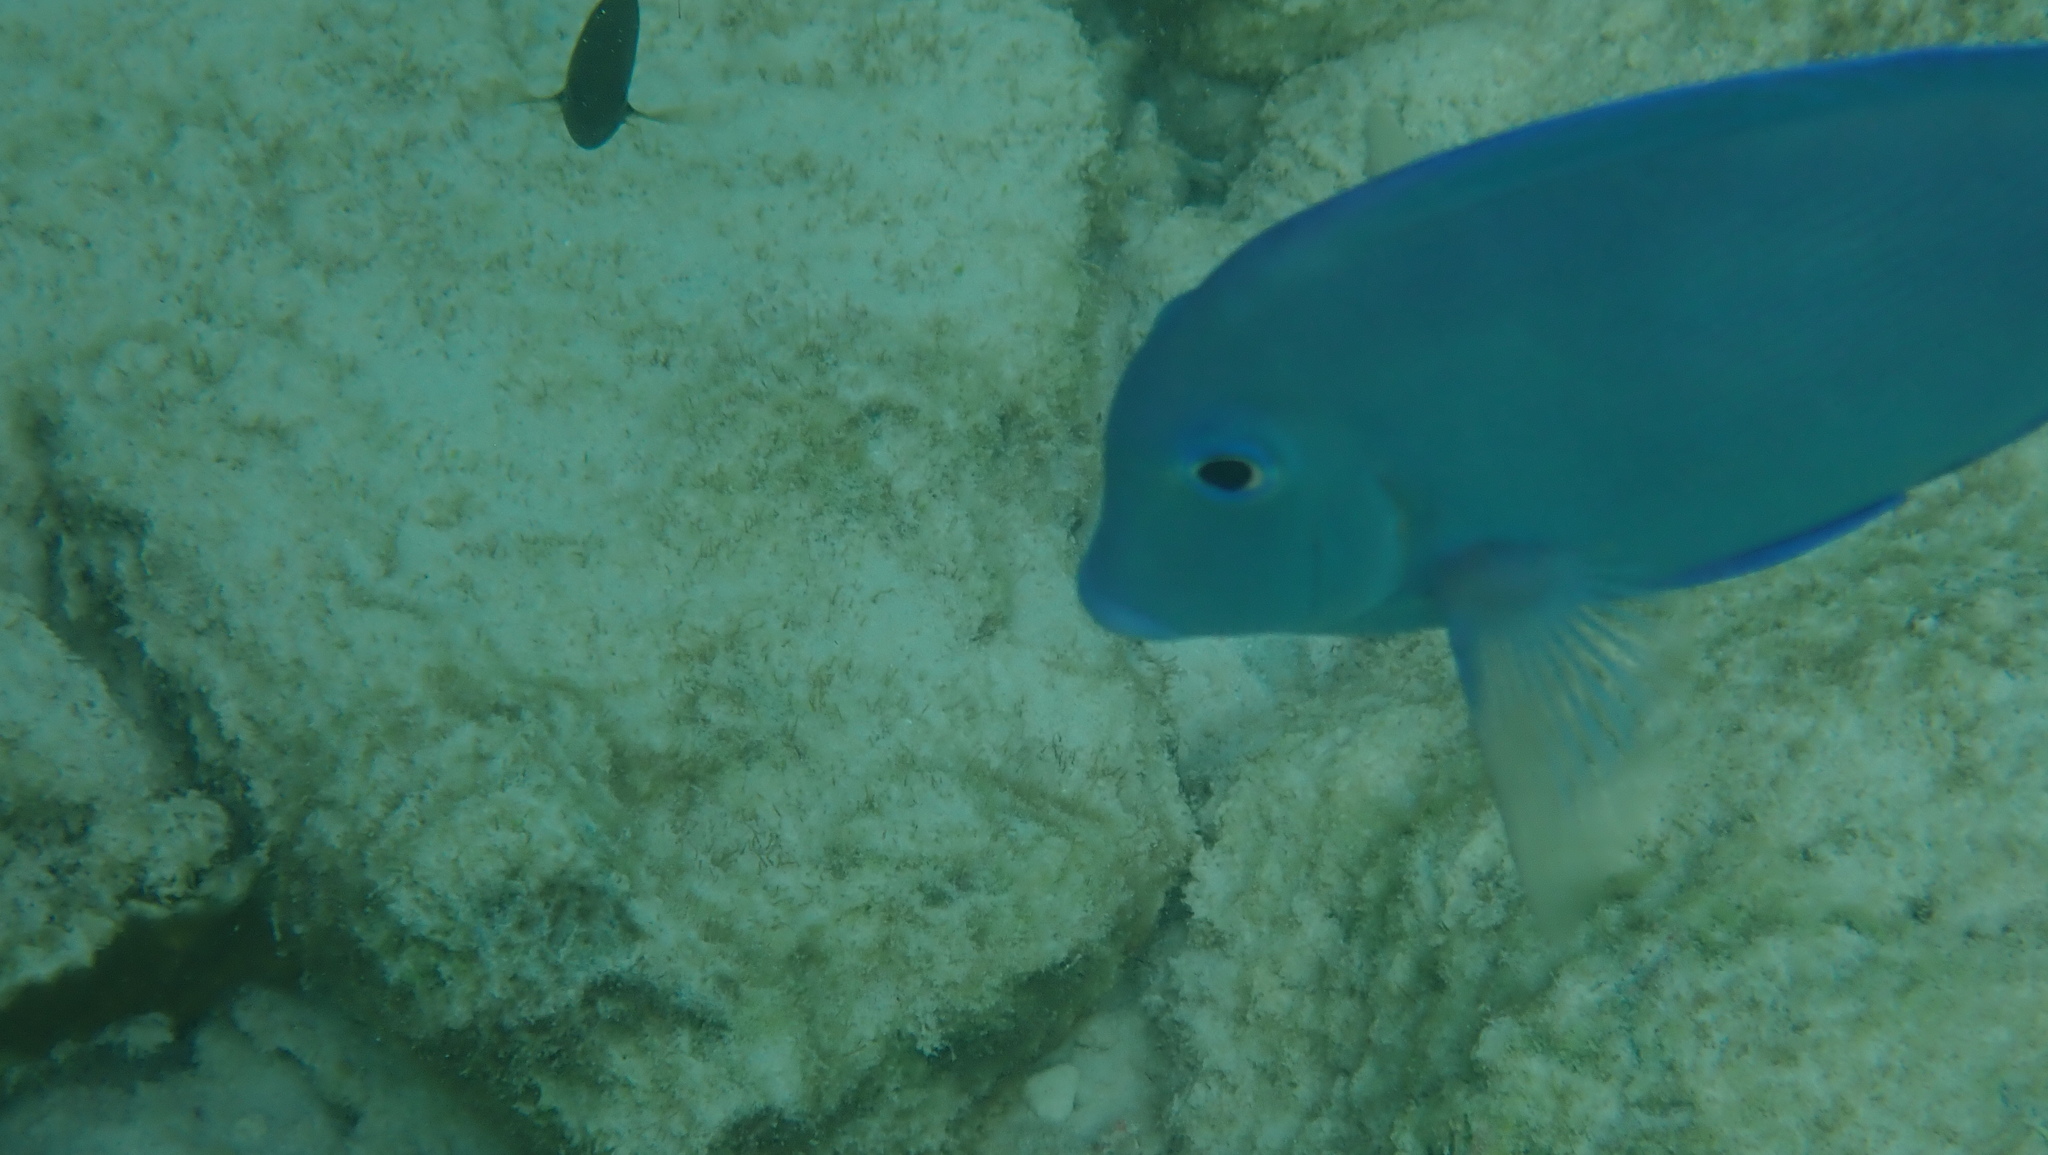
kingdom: Animalia
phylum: Chordata
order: Perciformes
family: Acanthuridae
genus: Acanthurus
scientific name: Acanthurus coeruleus
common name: Blue tang
